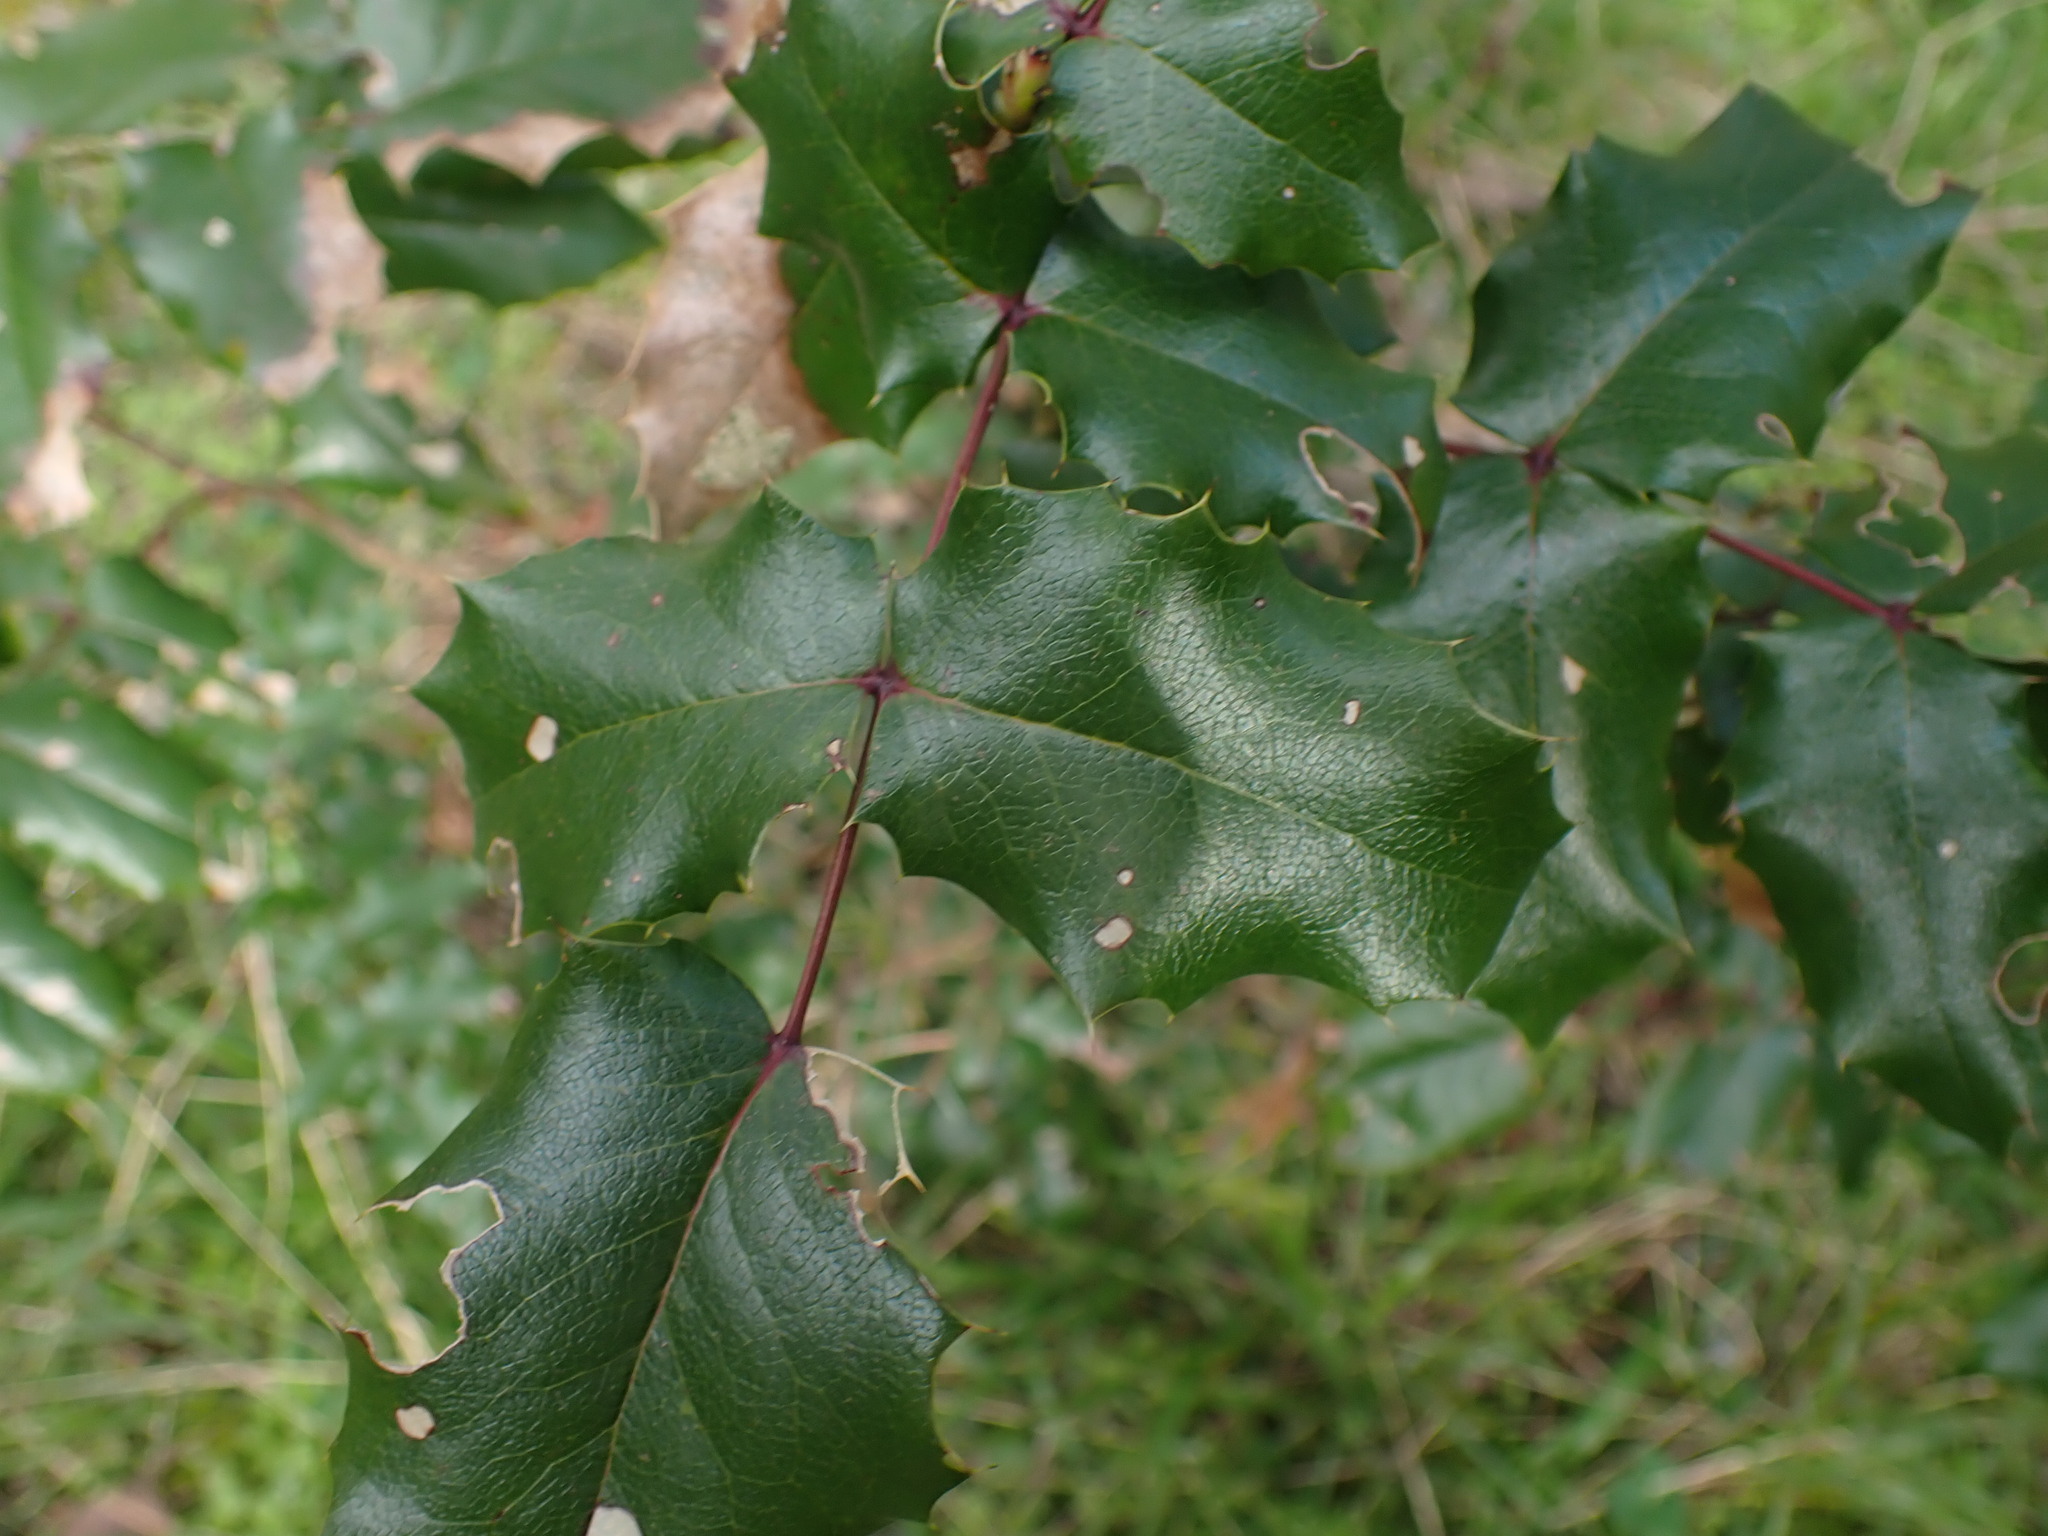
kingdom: Plantae
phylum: Tracheophyta
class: Magnoliopsida
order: Ranunculales
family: Berberidaceae
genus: Mahonia
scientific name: Mahonia aquifolium
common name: Oregon-grape
